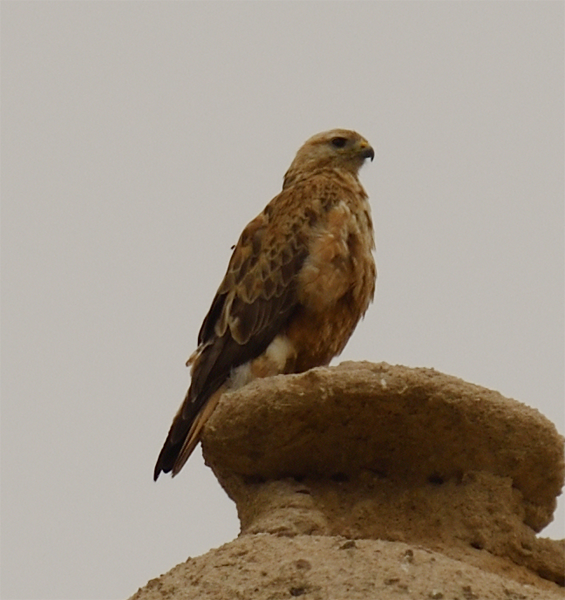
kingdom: Animalia
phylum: Chordata
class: Aves
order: Accipitriformes
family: Accipitridae
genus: Buteo
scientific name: Buteo rufinus
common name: Long-legged buzzard
